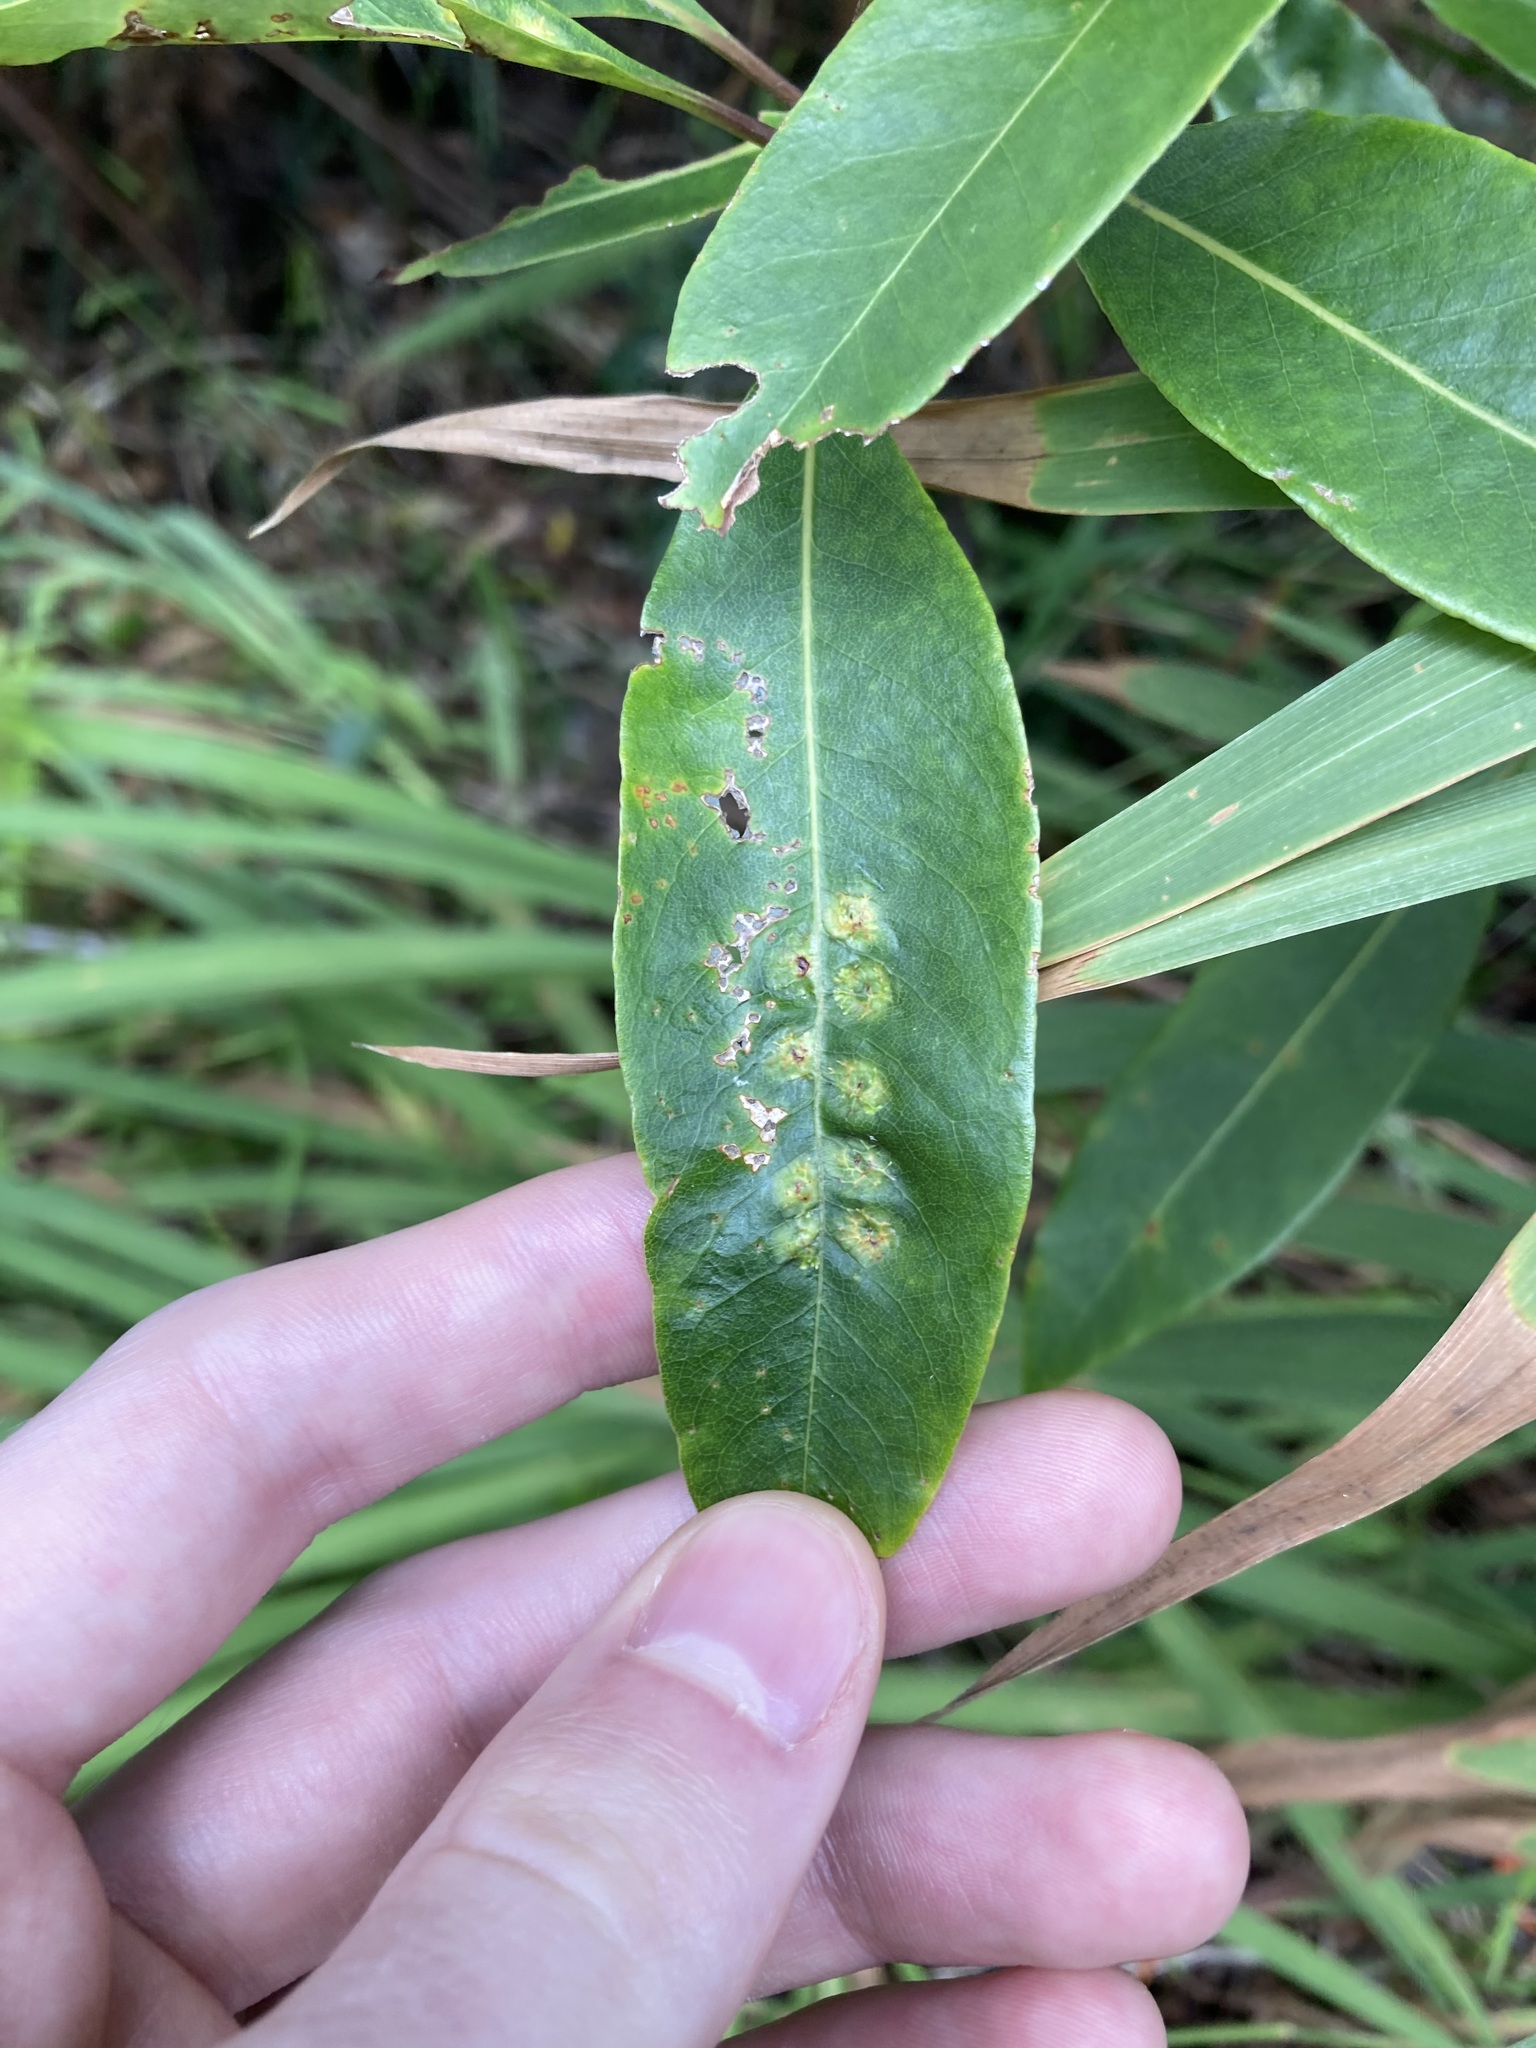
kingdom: Animalia
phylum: Arthropoda
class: Insecta
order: Diptera
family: Agromyzidae
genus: Phytoliriomyza
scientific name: Phytoliriomyza pittosporophylli
